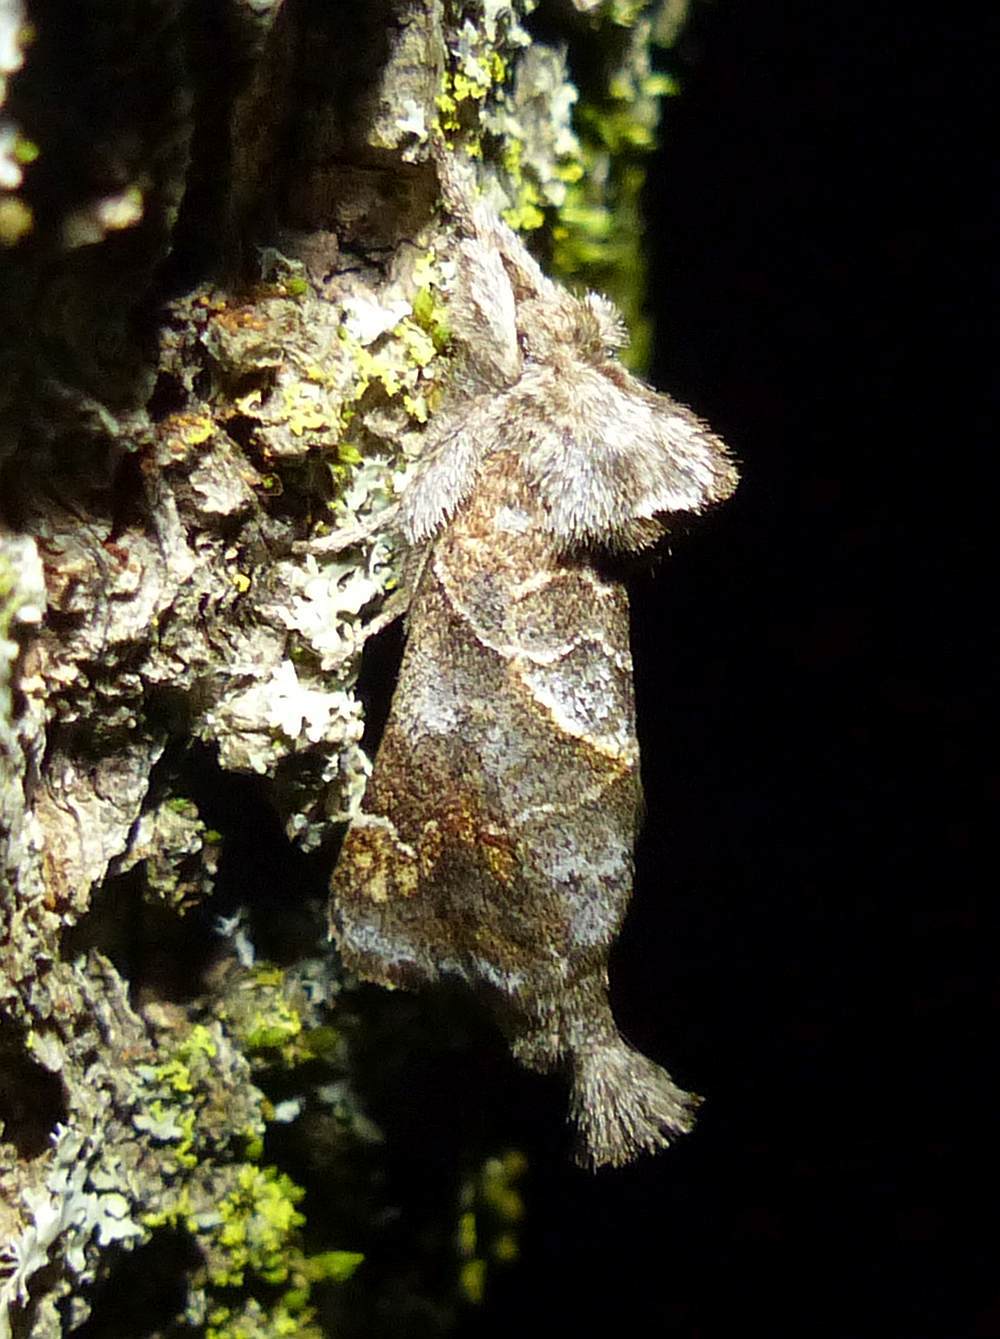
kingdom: Animalia
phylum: Arthropoda
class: Insecta
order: Lepidoptera
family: Notodontidae
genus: Clostera
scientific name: Clostera strigosa
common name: Striped chocolate-tip moth
